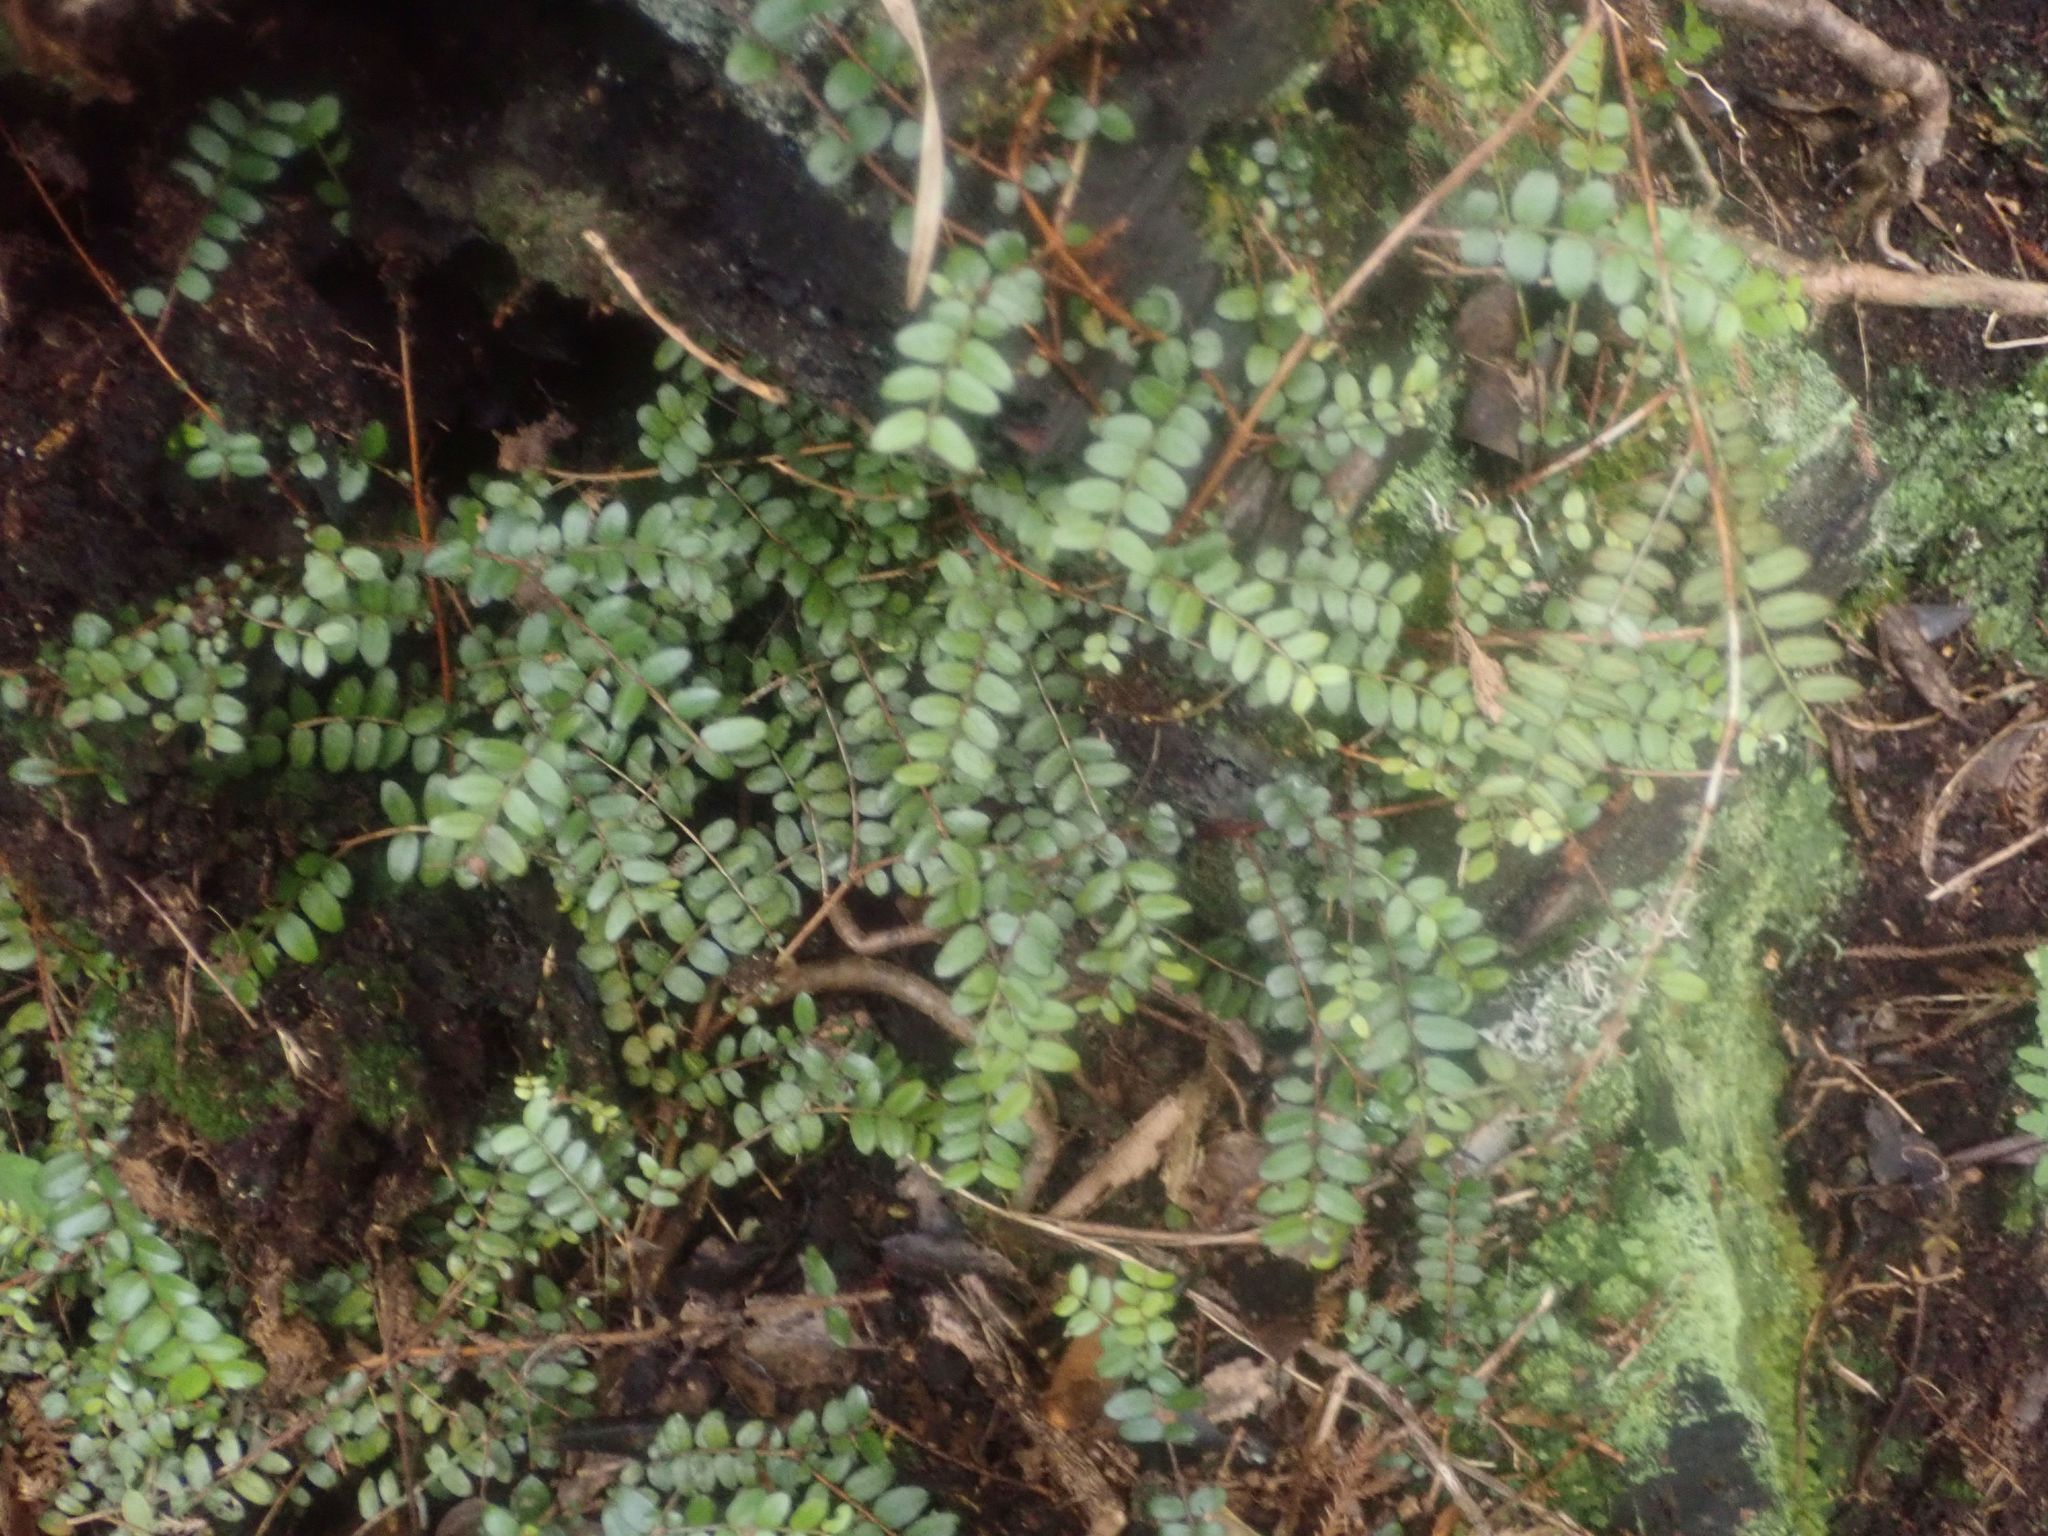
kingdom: Plantae
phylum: Tracheophyta
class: Magnoliopsida
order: Myrtales
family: Myrtaceae
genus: Metrosideros
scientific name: Metrosideros diffusa
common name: Small ratavine
